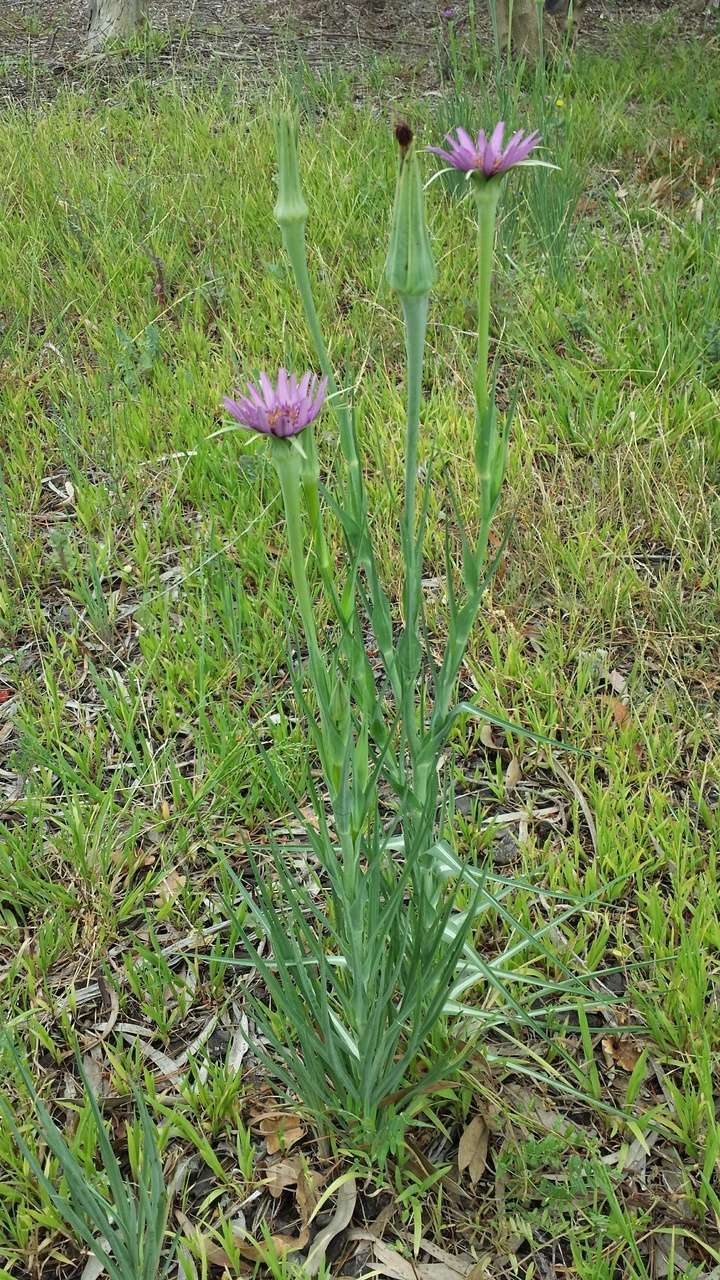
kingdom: Plantae
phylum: Tracheophyta
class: Magnoliopsida
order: Asterales
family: Asteraceae
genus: Tragopogon
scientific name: Tragopogon porrifolius
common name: Salsify
